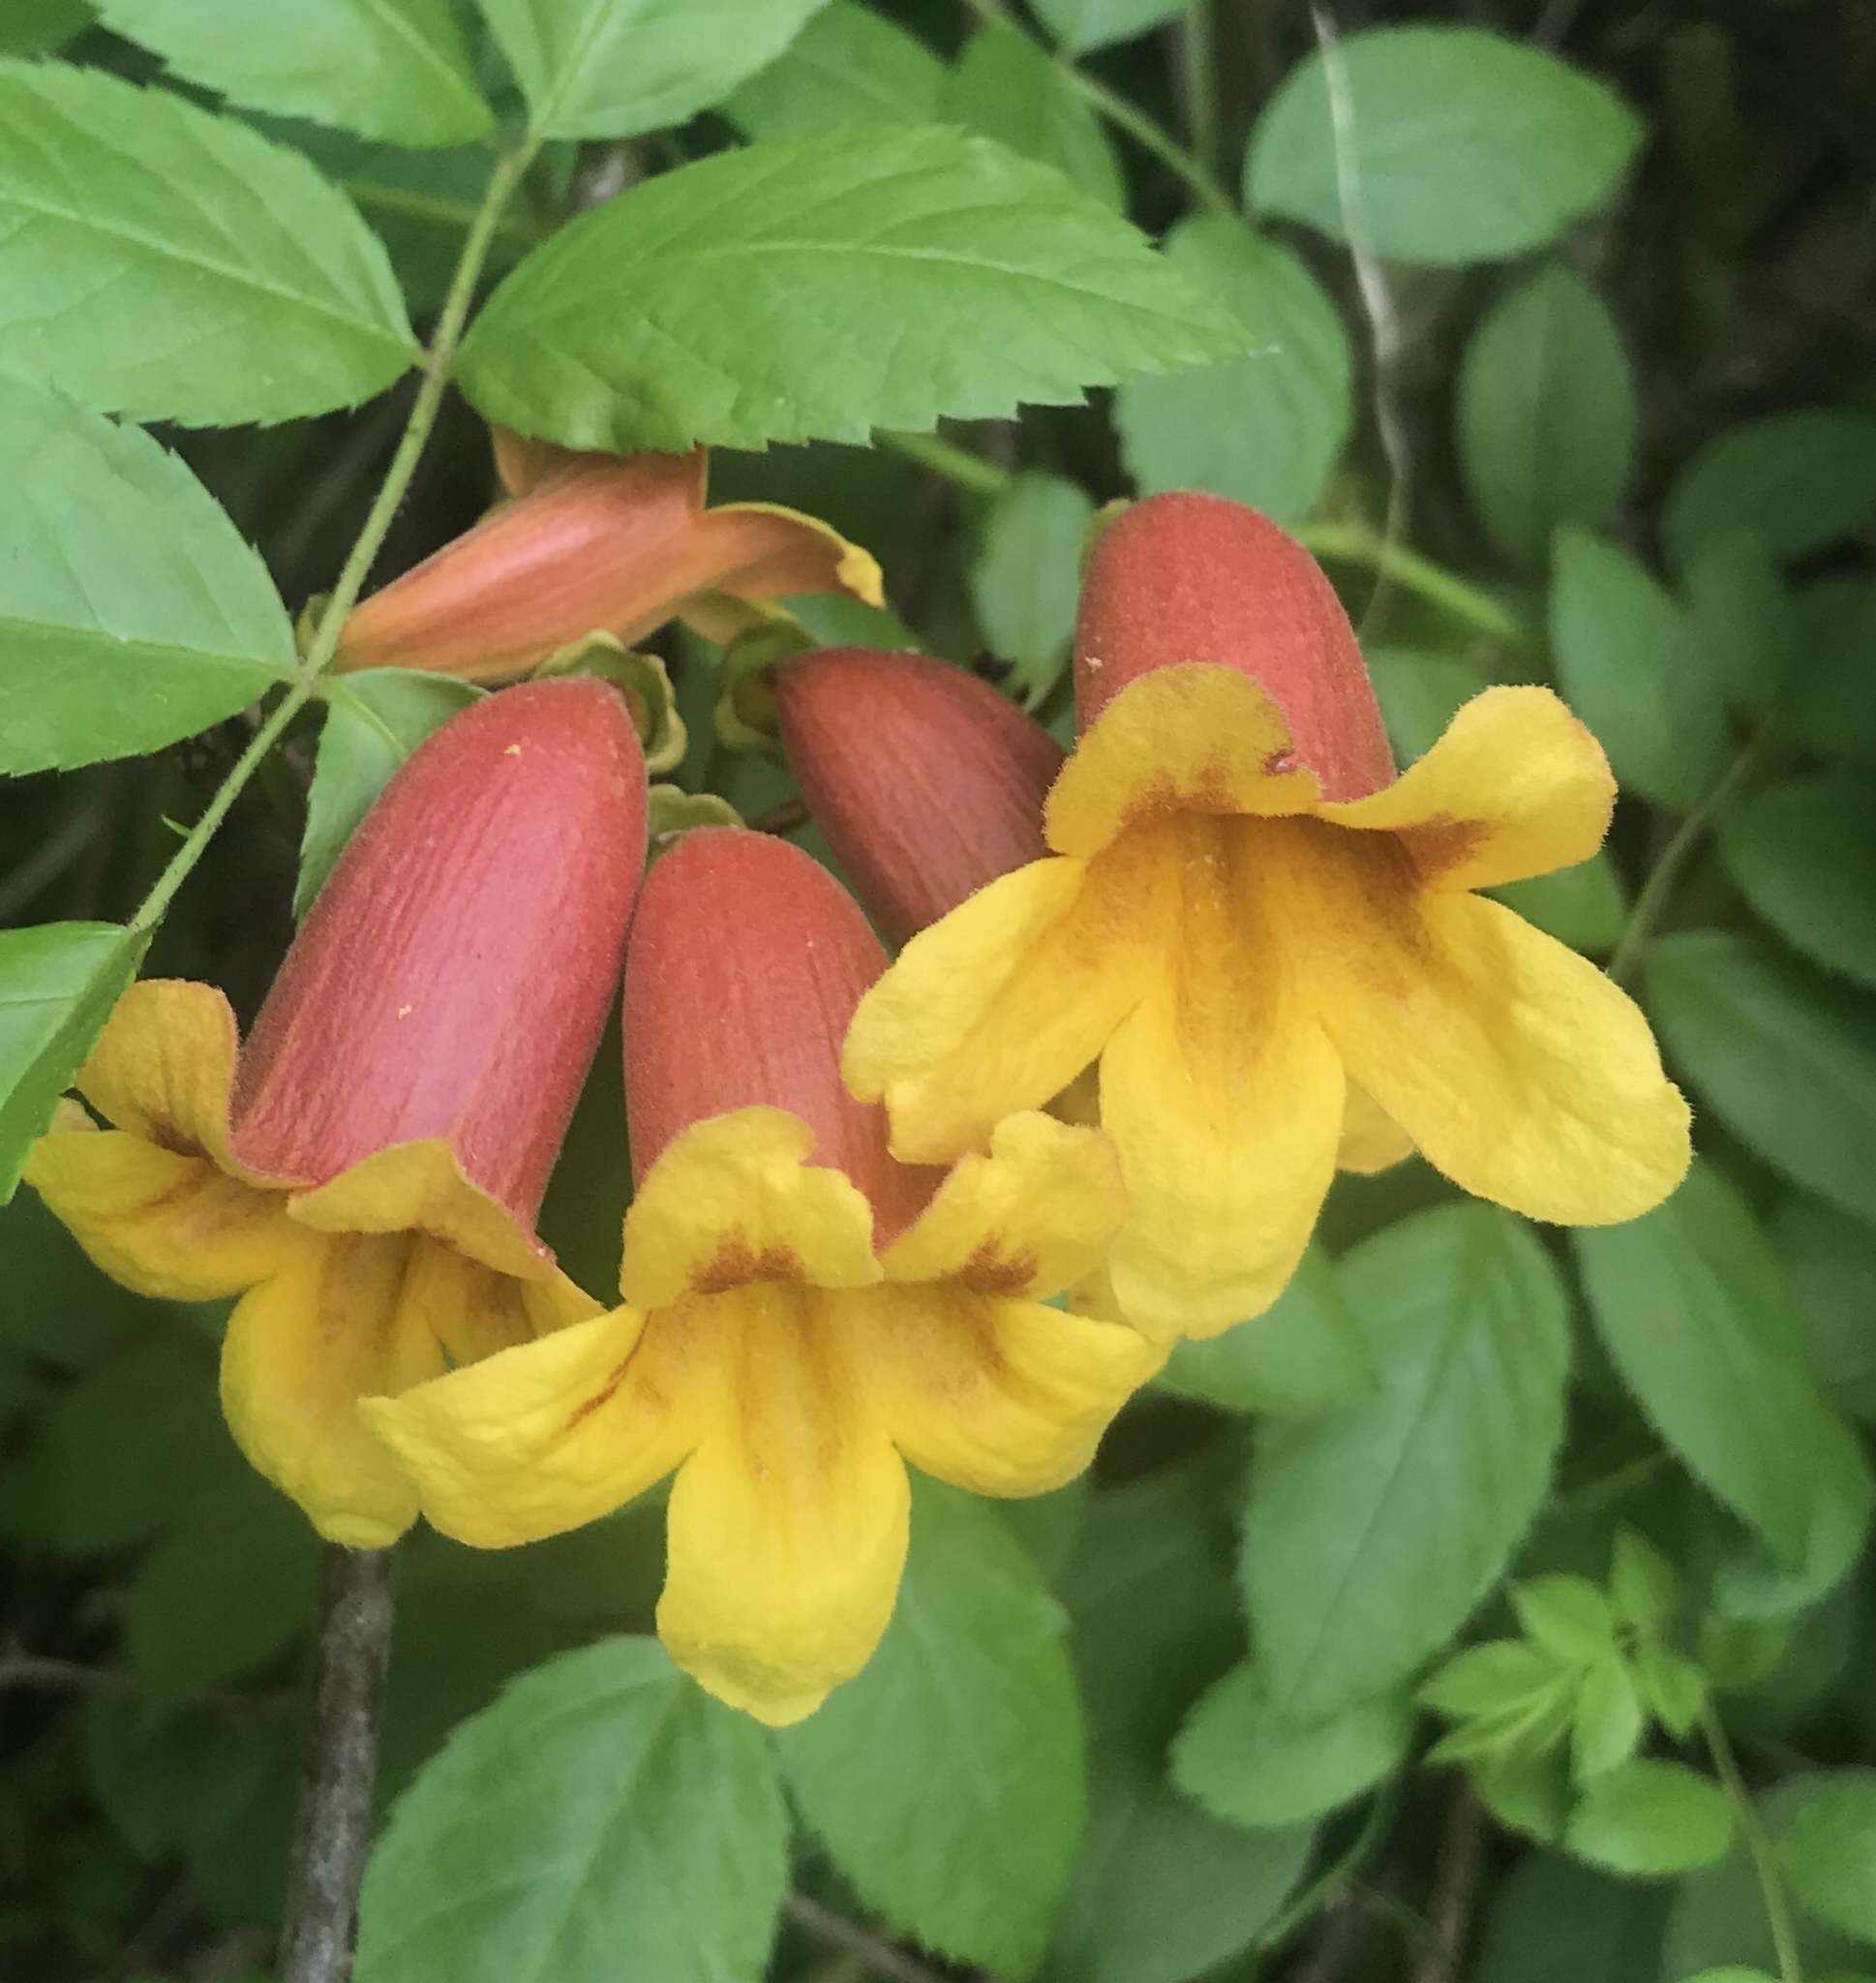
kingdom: Plantae
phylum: Tracheophyta
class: Magnoliopsida
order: Lamiales
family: Bignoniaceae
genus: Bignonia
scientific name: Bignonia capreolata
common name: Crossvine
